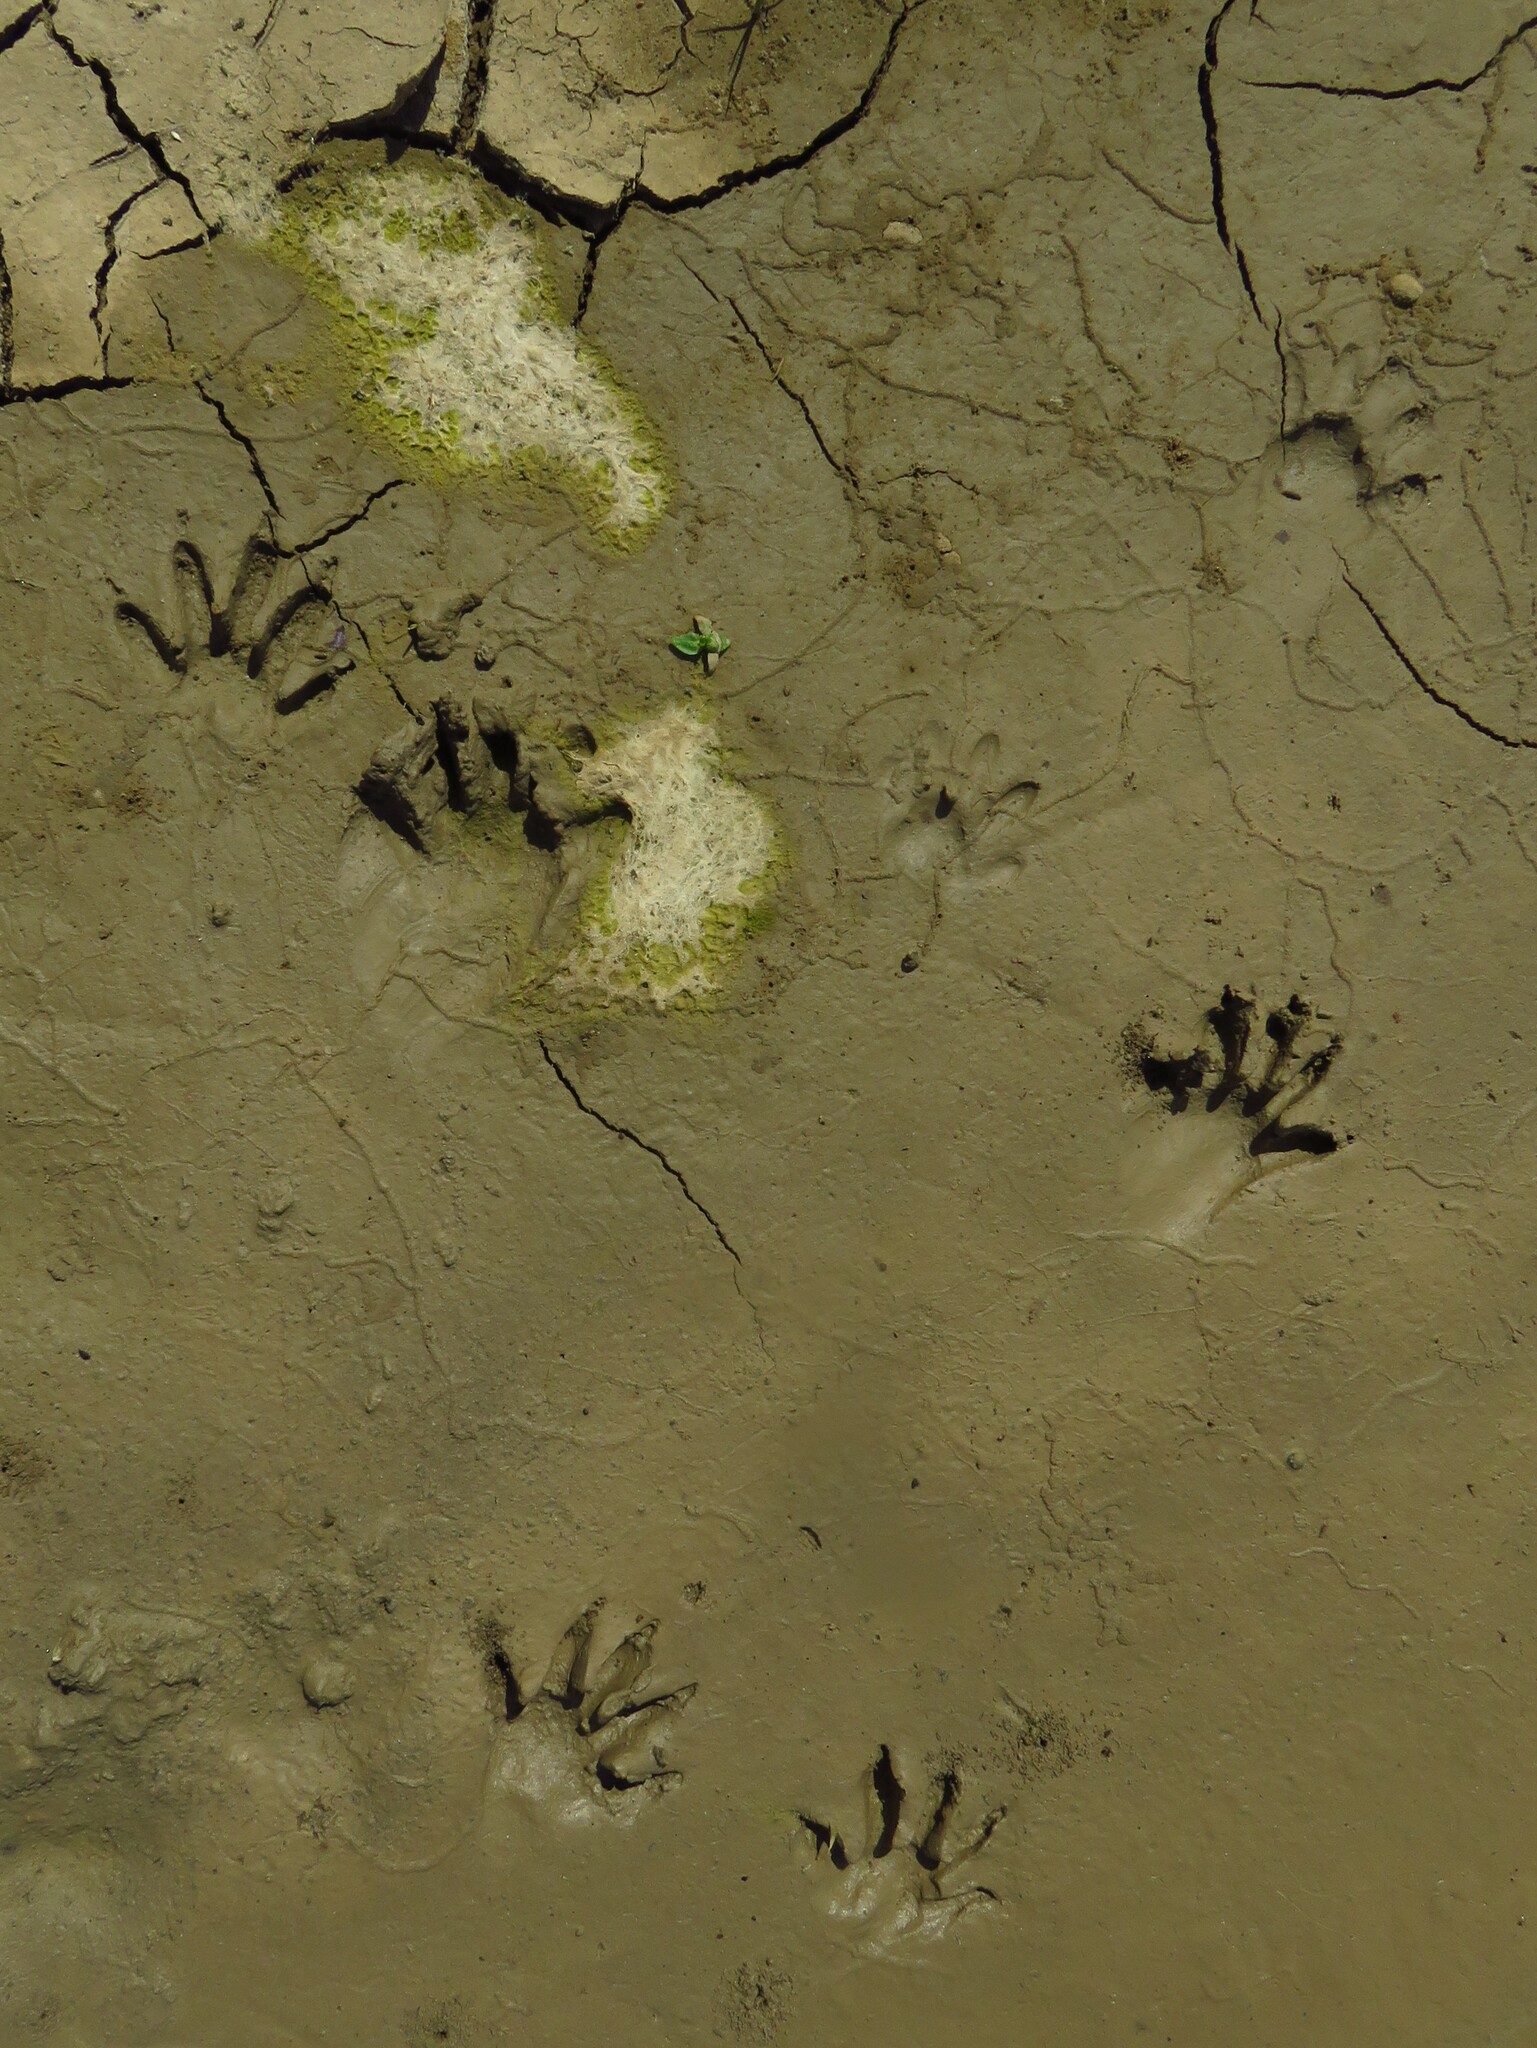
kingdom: Animalia
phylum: Chordata
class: Mammalia
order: Carnivora
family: Procyonidae
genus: Procyon
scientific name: Procyon lotor
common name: Raccoon
